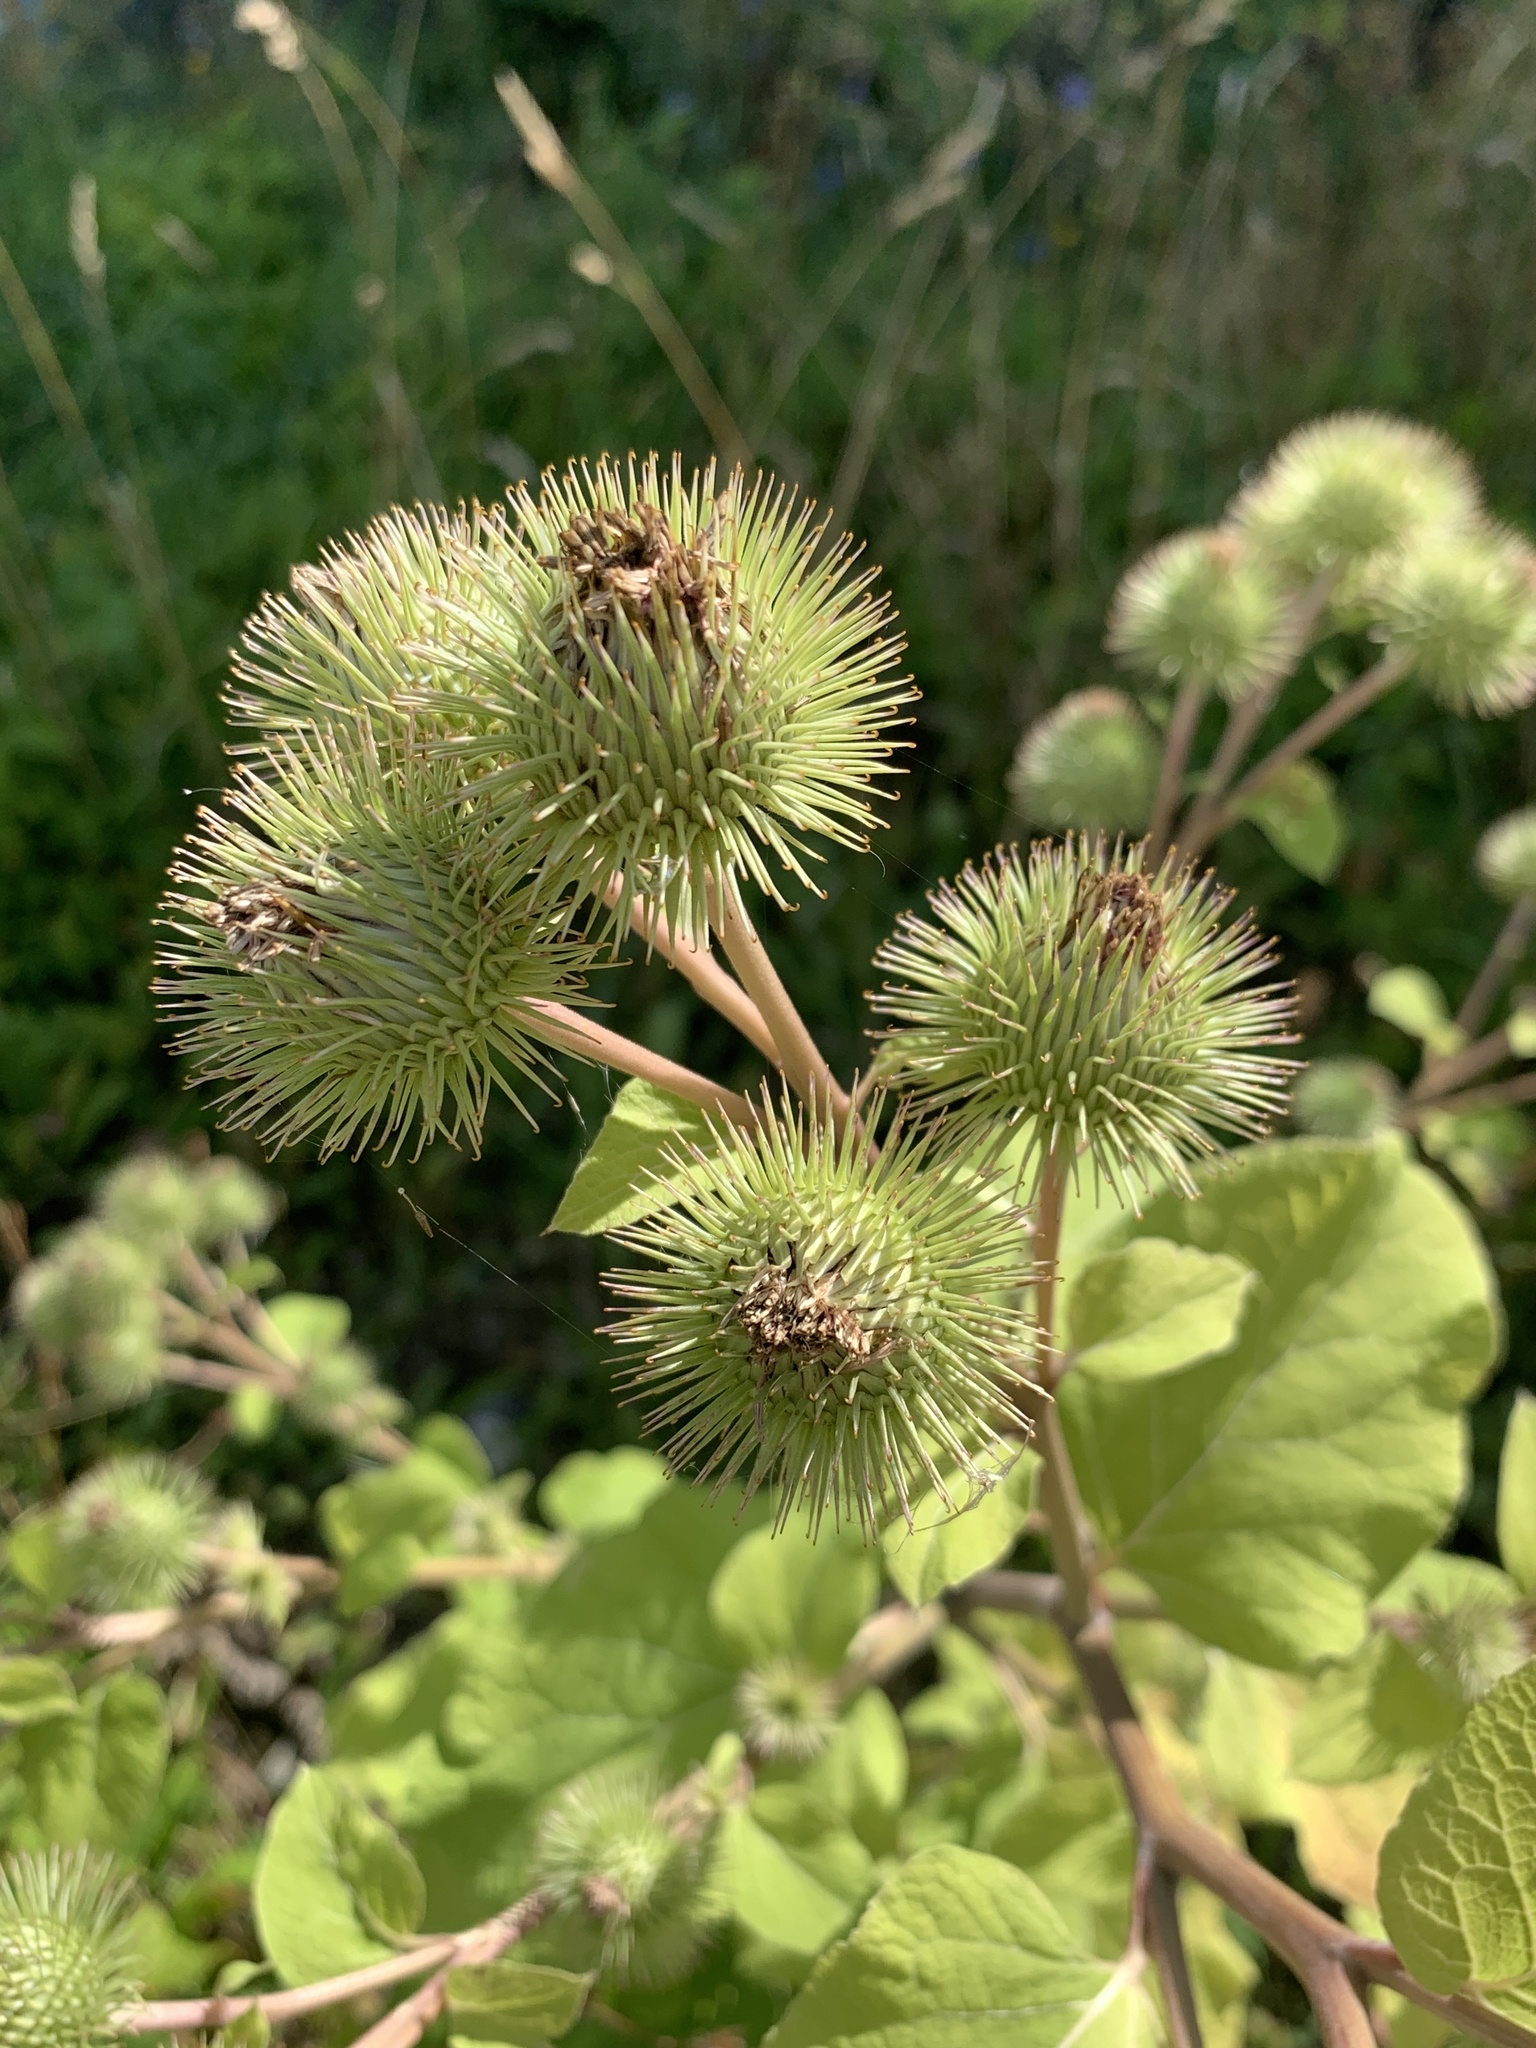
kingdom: Plantae
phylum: Tracheophyta
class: Magnoliopsida
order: Asterales
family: Asteraceae
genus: Arctium
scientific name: Arctium lappa
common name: Greater burdock
